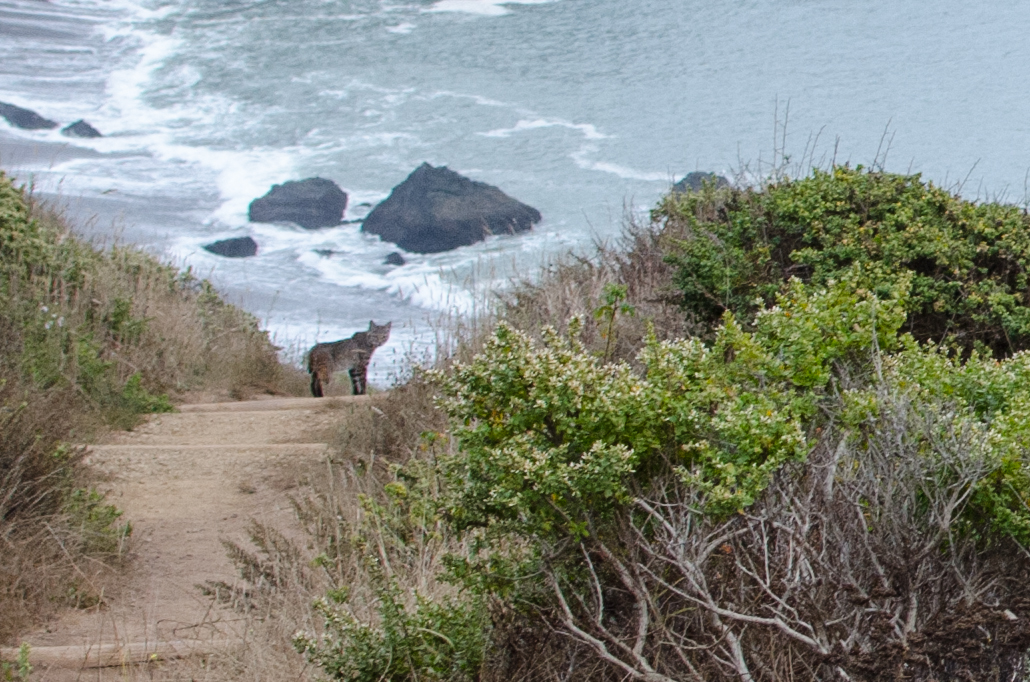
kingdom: Animalia
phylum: Chordata
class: Mammalia
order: Carnivora
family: Felidae
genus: Lynx
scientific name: Lynx rufus
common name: Bobcat
